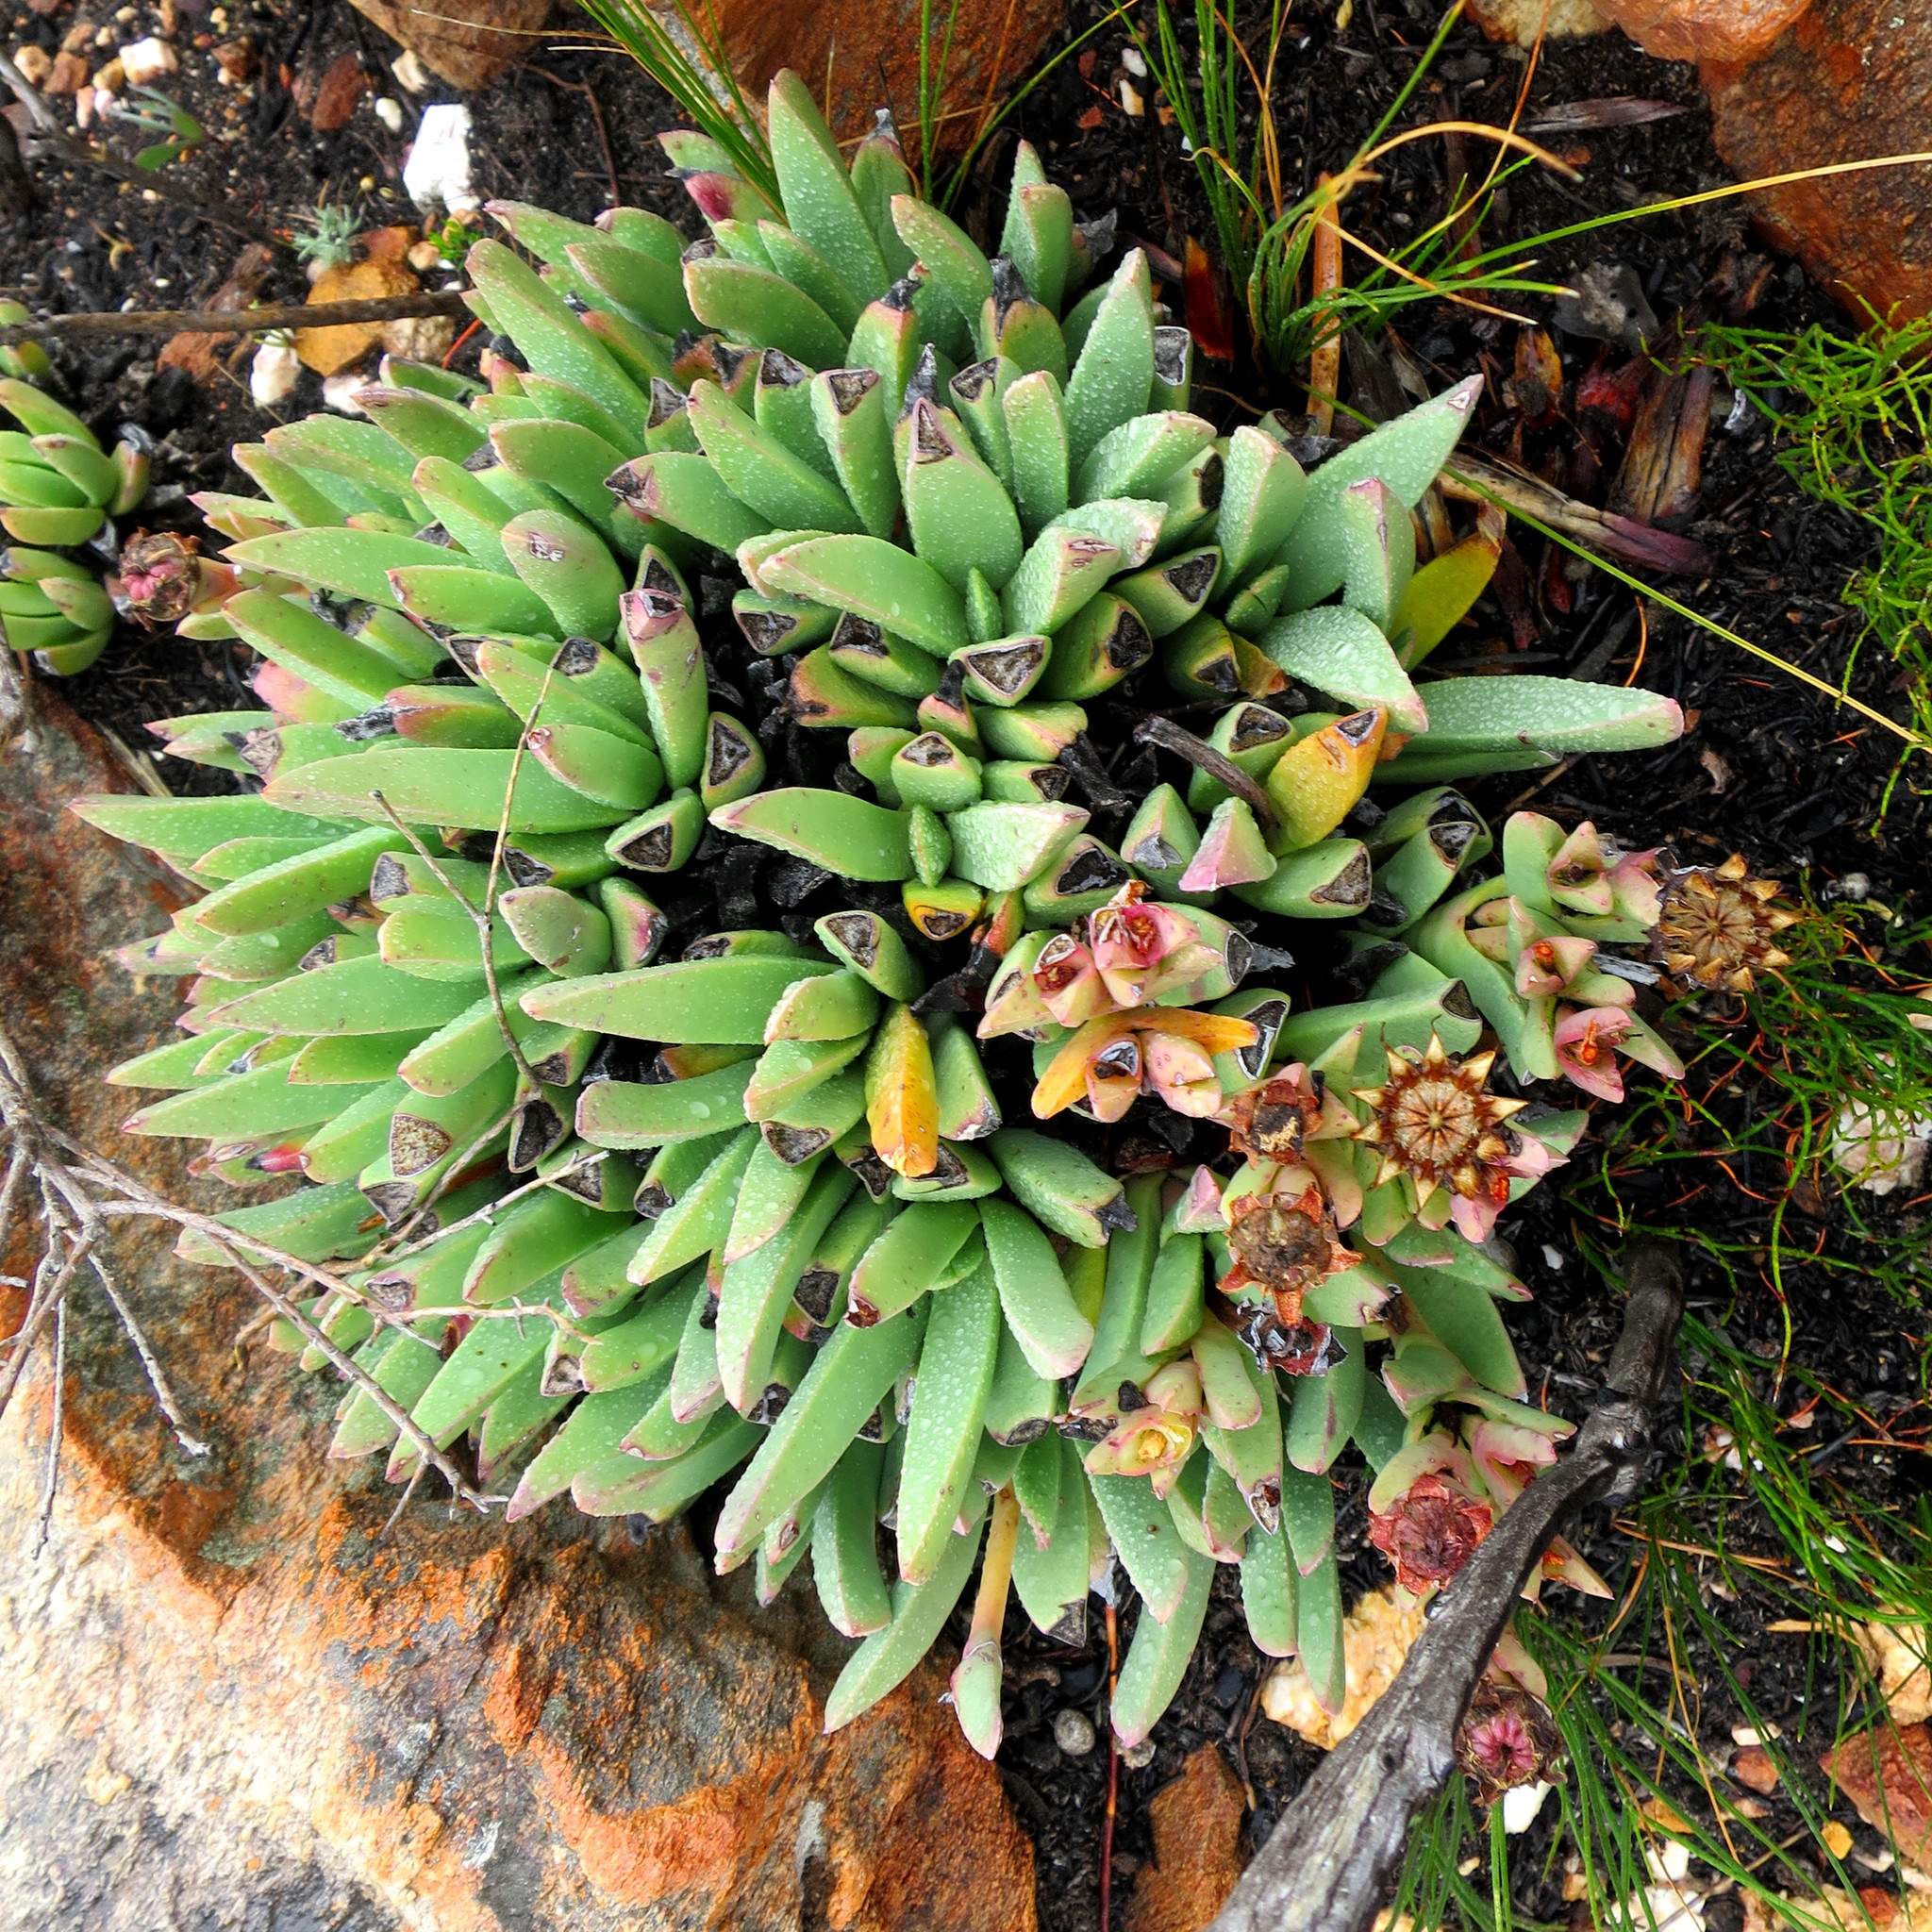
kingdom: Plantae
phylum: Tracheophyta
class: Magnoliopsida
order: Caryophyllales
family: Aizoaceae
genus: Machairophyllum
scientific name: Machairophyllum albidum
